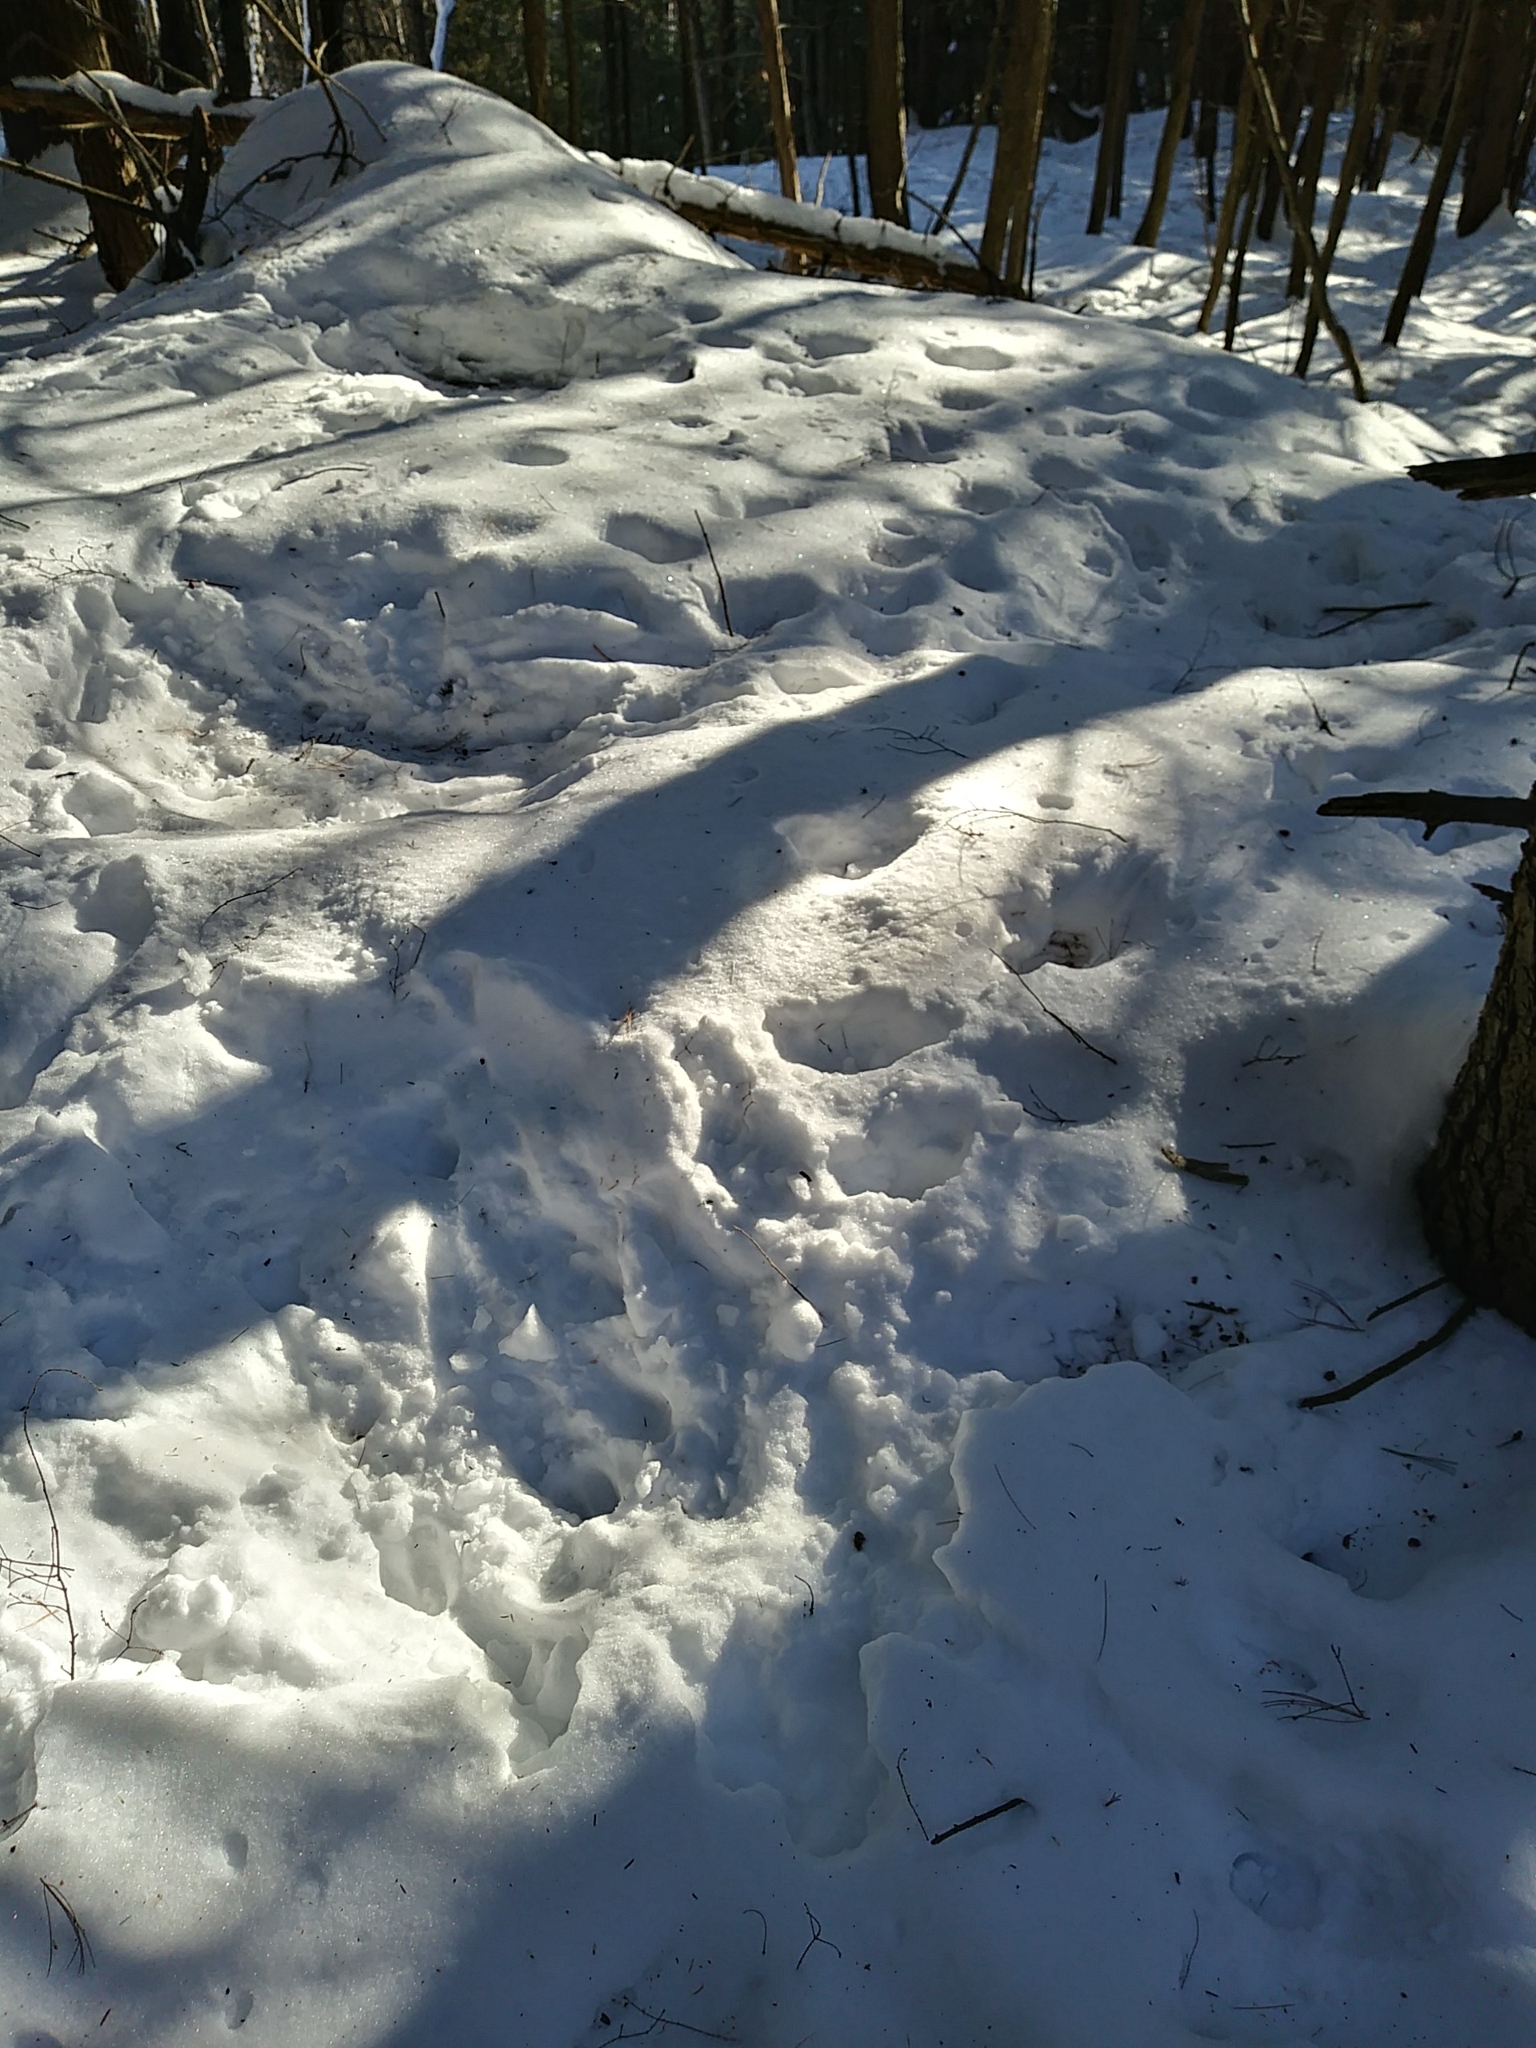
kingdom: Animalia
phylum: Chordata
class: Mammalia
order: Artiodactyla
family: Cervidae
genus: Odocoileus
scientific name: Odocoileus virginianus
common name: White-tailed deer
